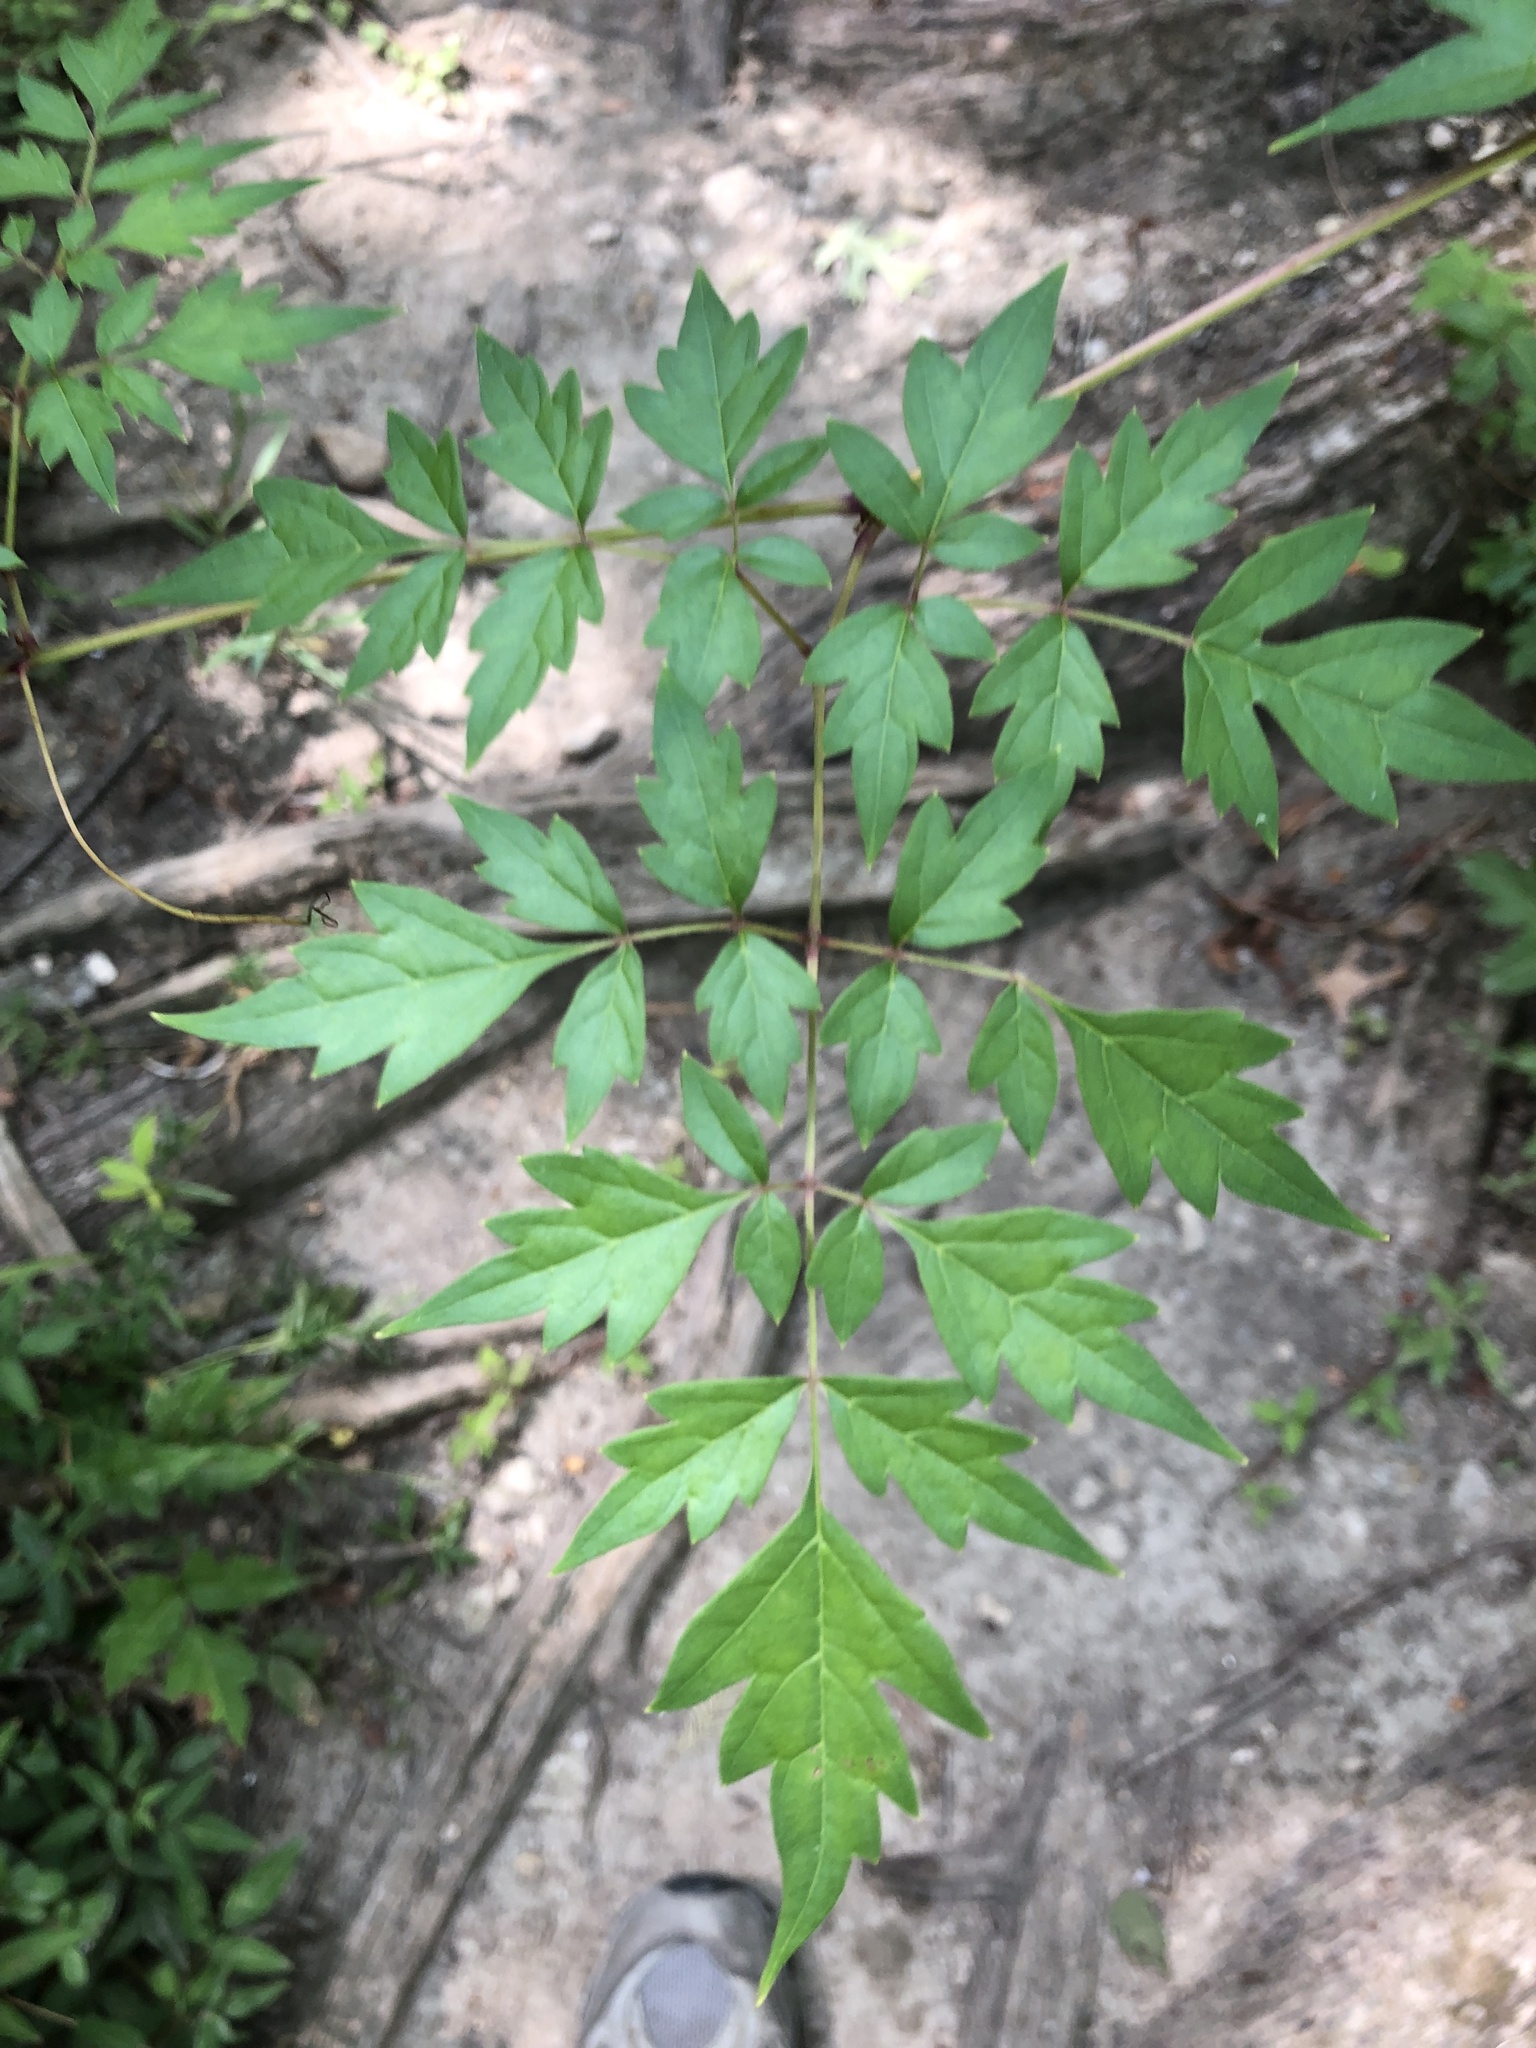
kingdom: Plantae
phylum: Tracheophyta
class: Magnoliopsida
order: Vitales
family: Vitaceae
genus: Nekemias
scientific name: Nekemias arborea
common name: Peppervine
